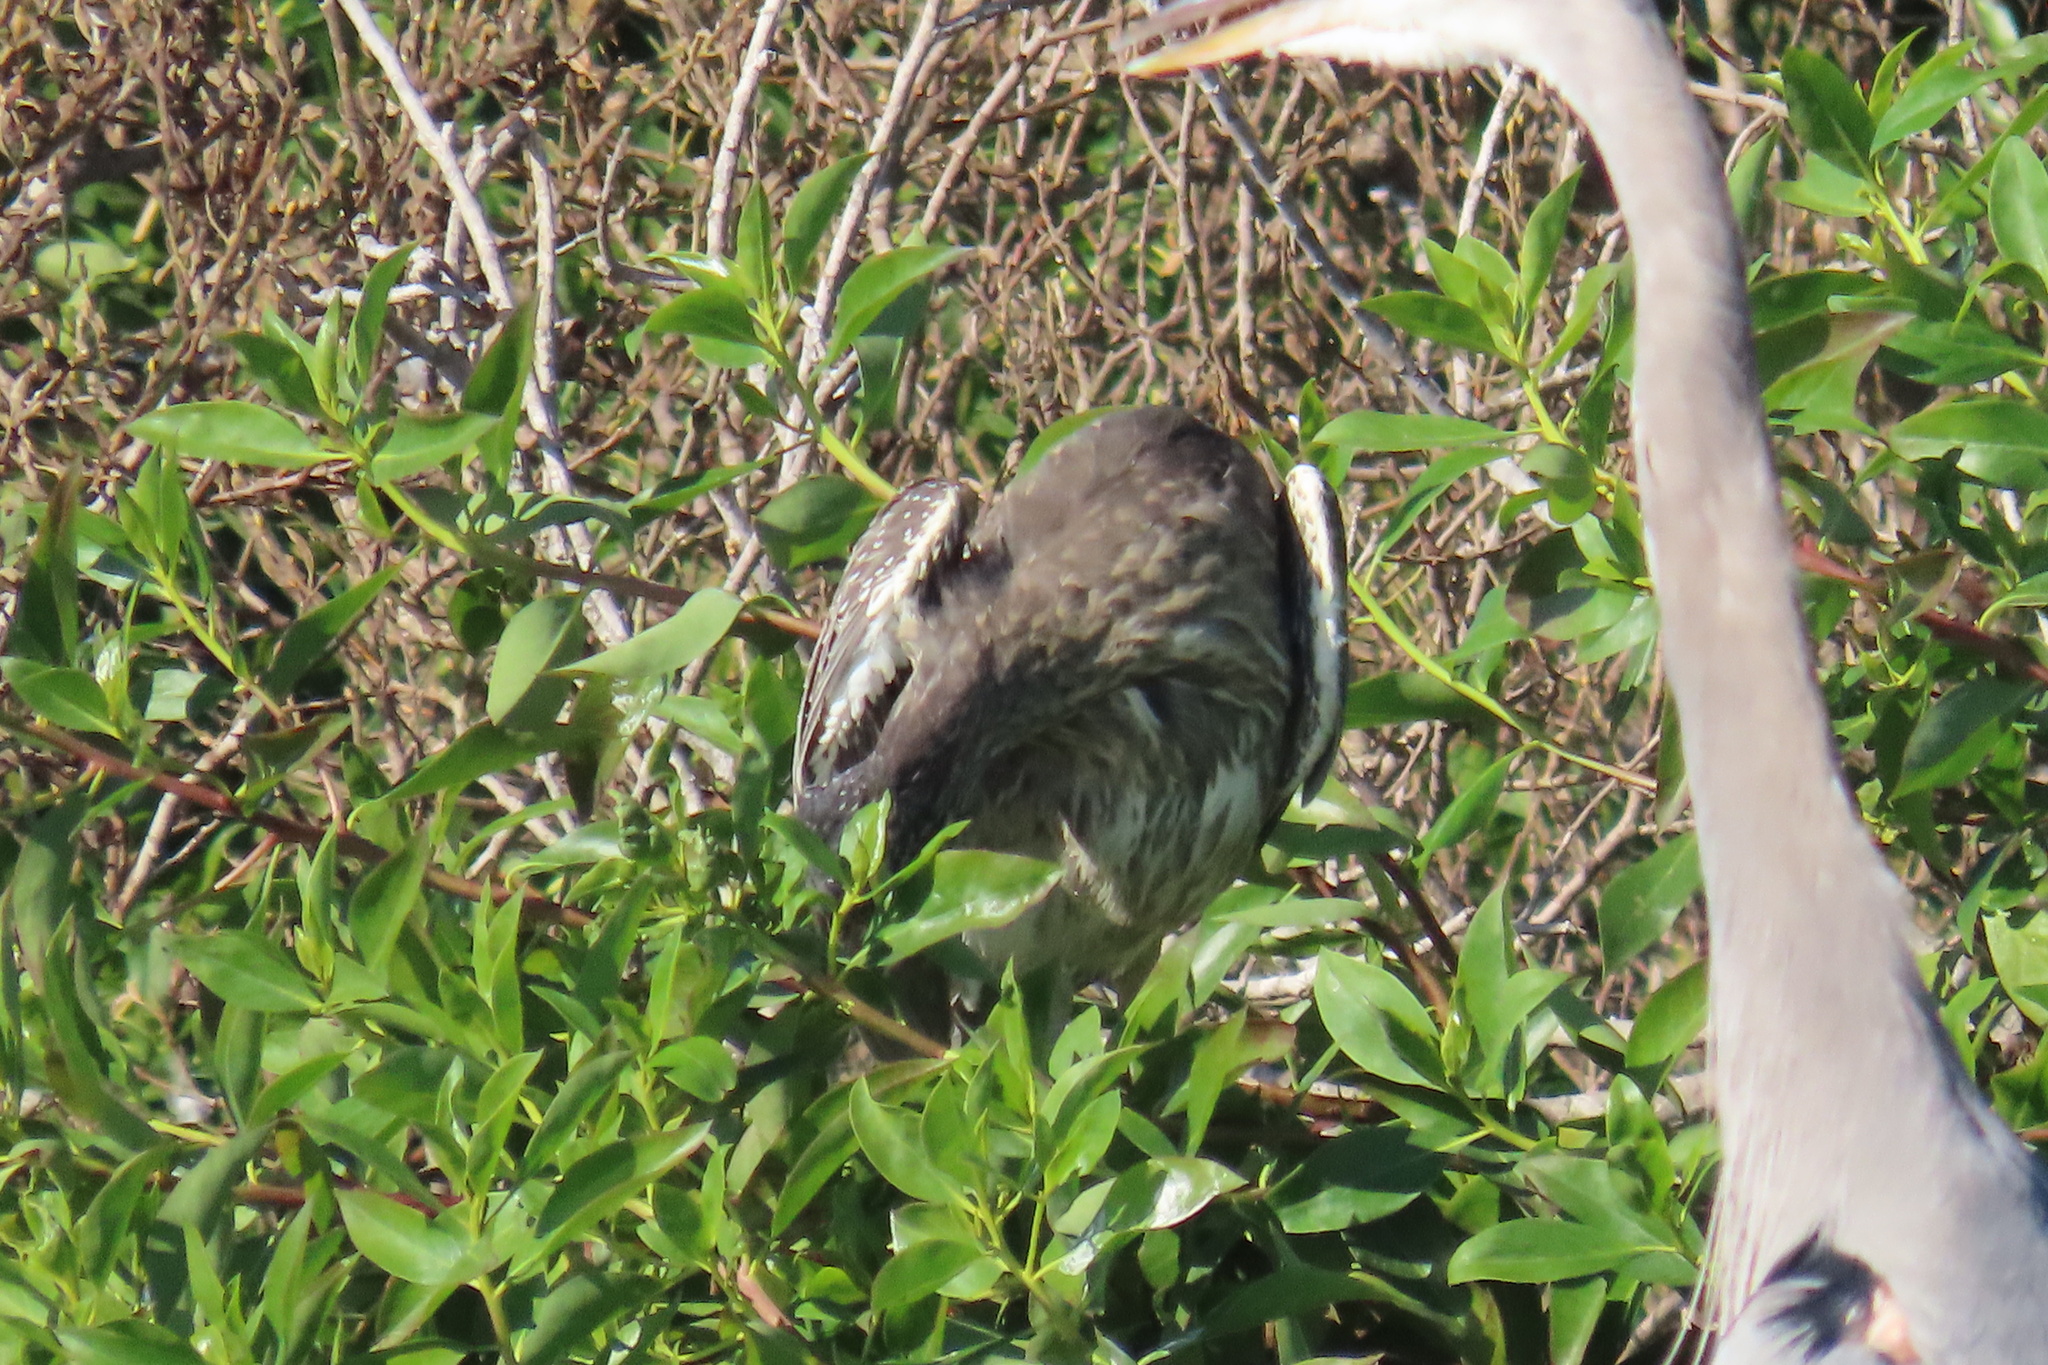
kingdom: Animalia
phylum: Chordata
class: Aves
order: Pelecaniformes
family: Ardeidae
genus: Nyctanassa
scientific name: Nyctanassa violacea
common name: Yellow-crowned night heron
